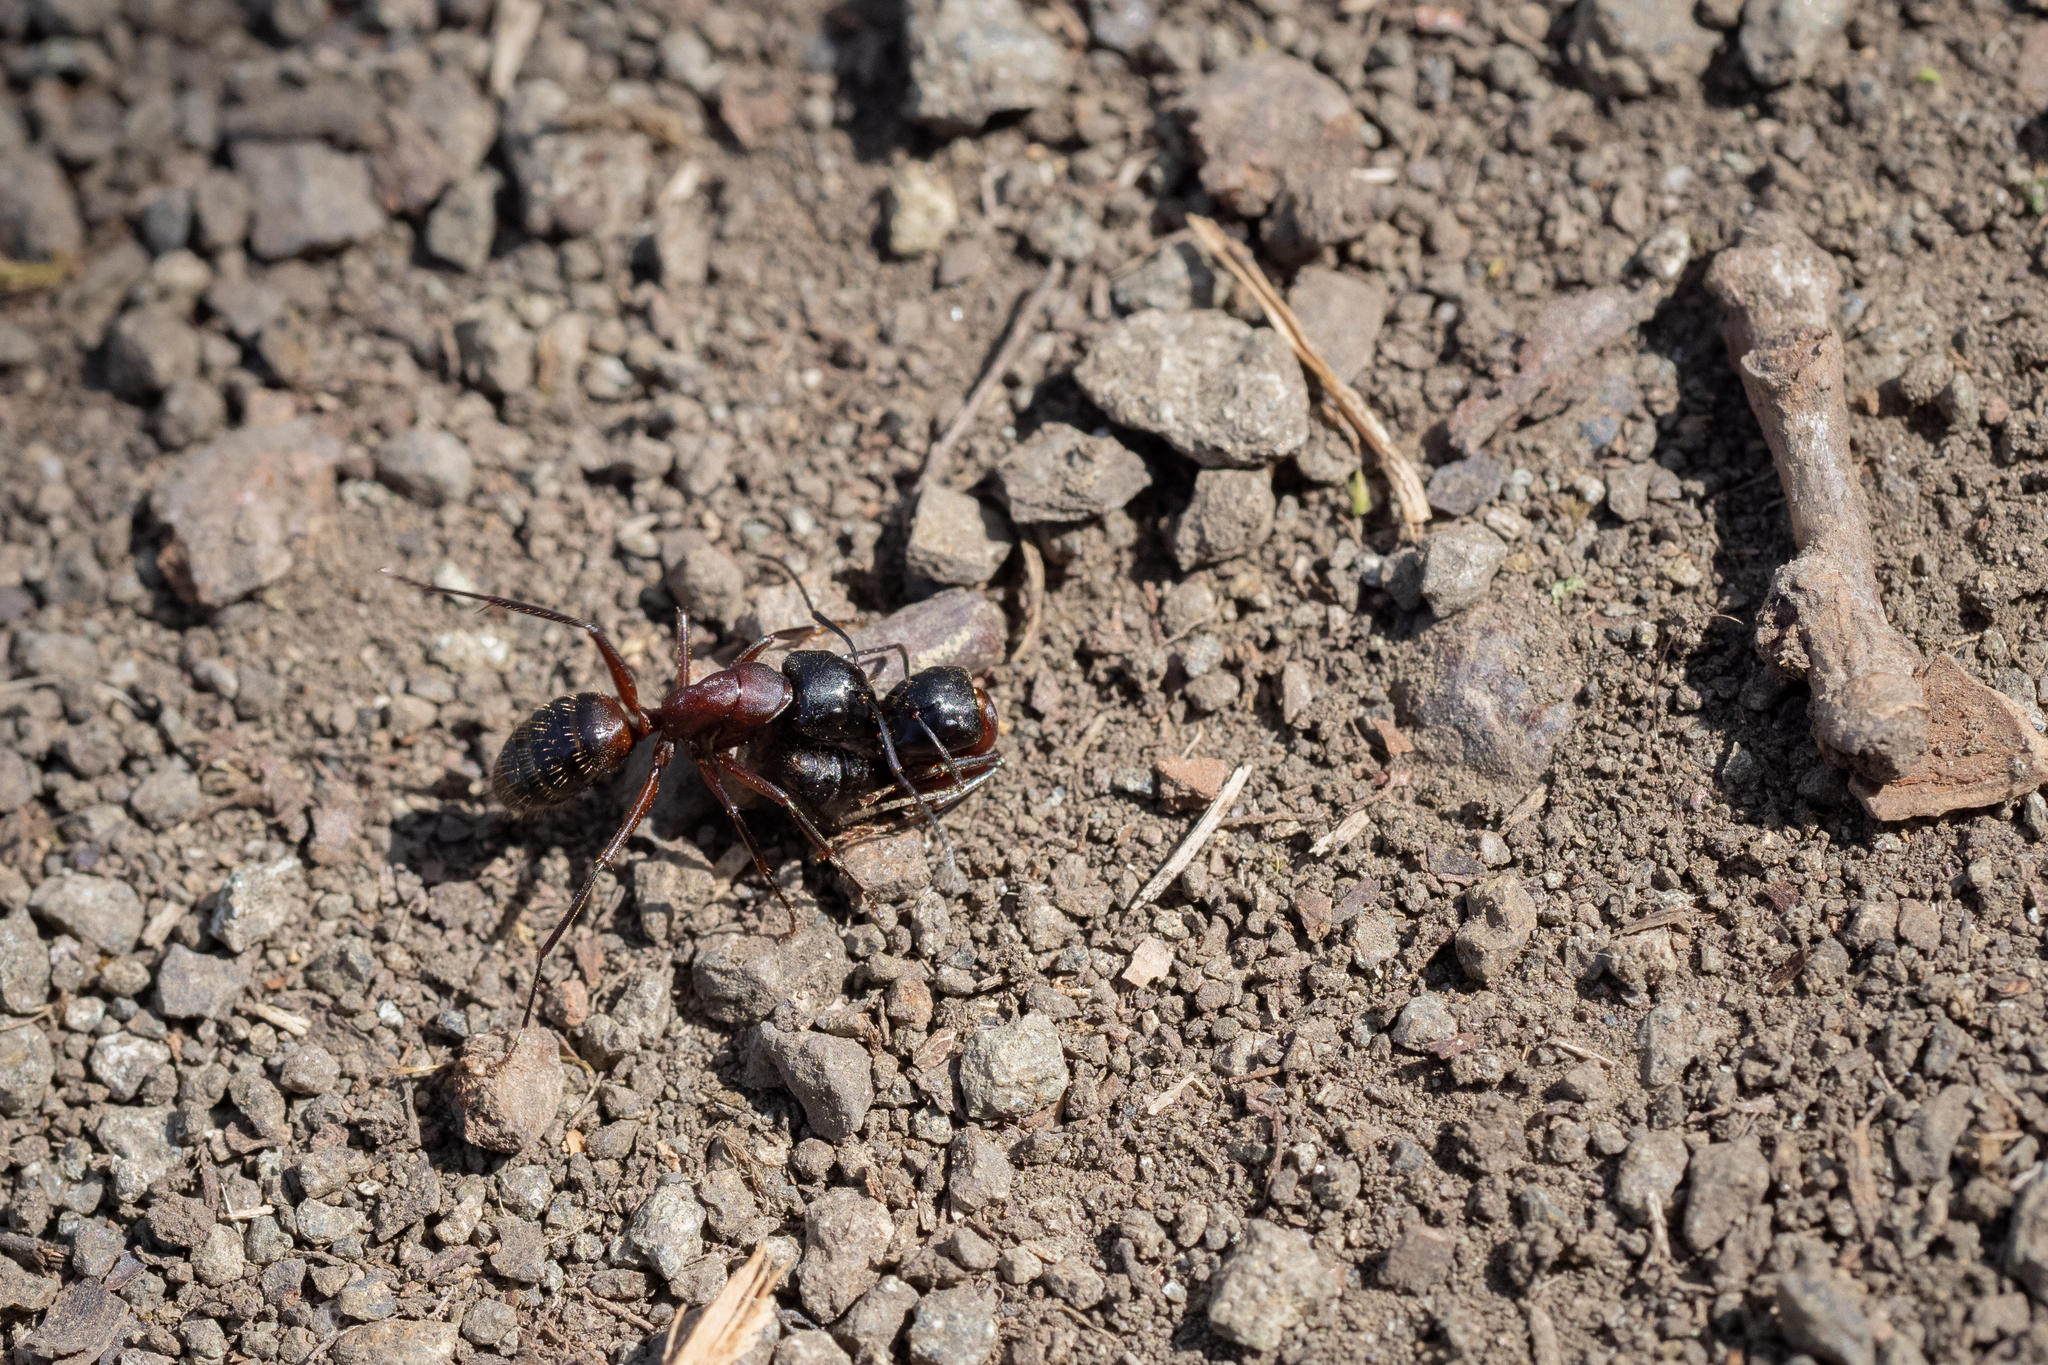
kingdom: Animalia
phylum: Arthropoda
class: Insecta
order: Hymenoptera
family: Formicidae
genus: Camponotus
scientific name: Camponotus ligniperdus
